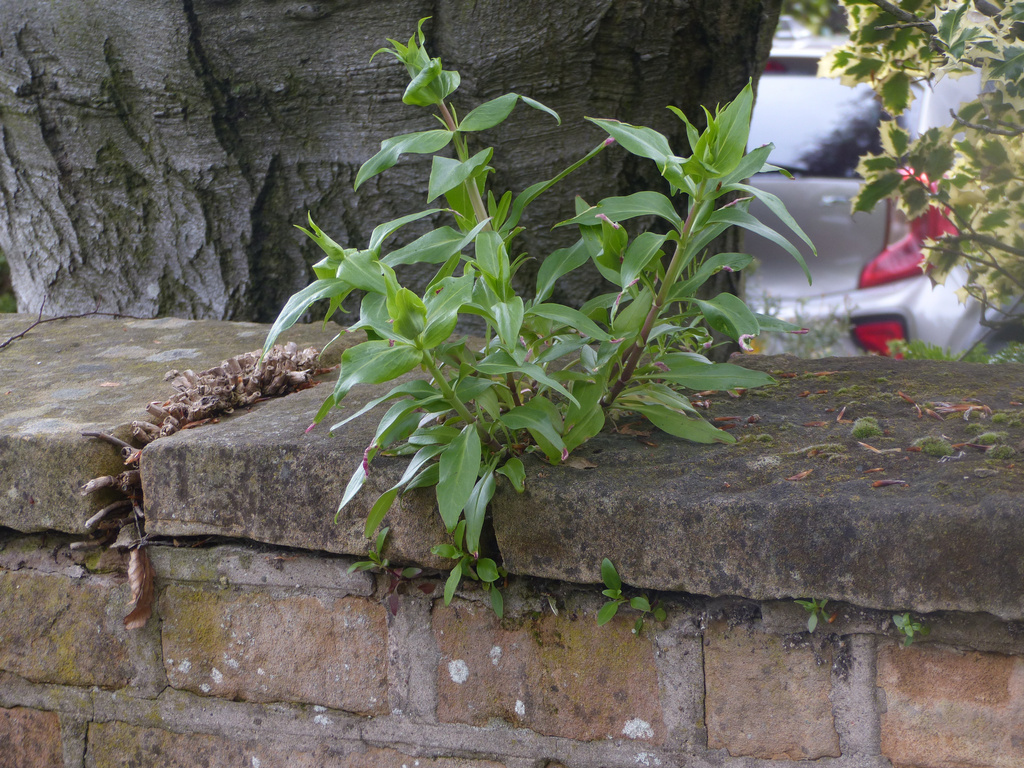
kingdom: Plantae
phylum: Tracheophyta
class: Magnoliopsida
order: Dipsacales
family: Caprifoliaceae
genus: Centranthus
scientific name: Centranthus ruber
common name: Red valerian
